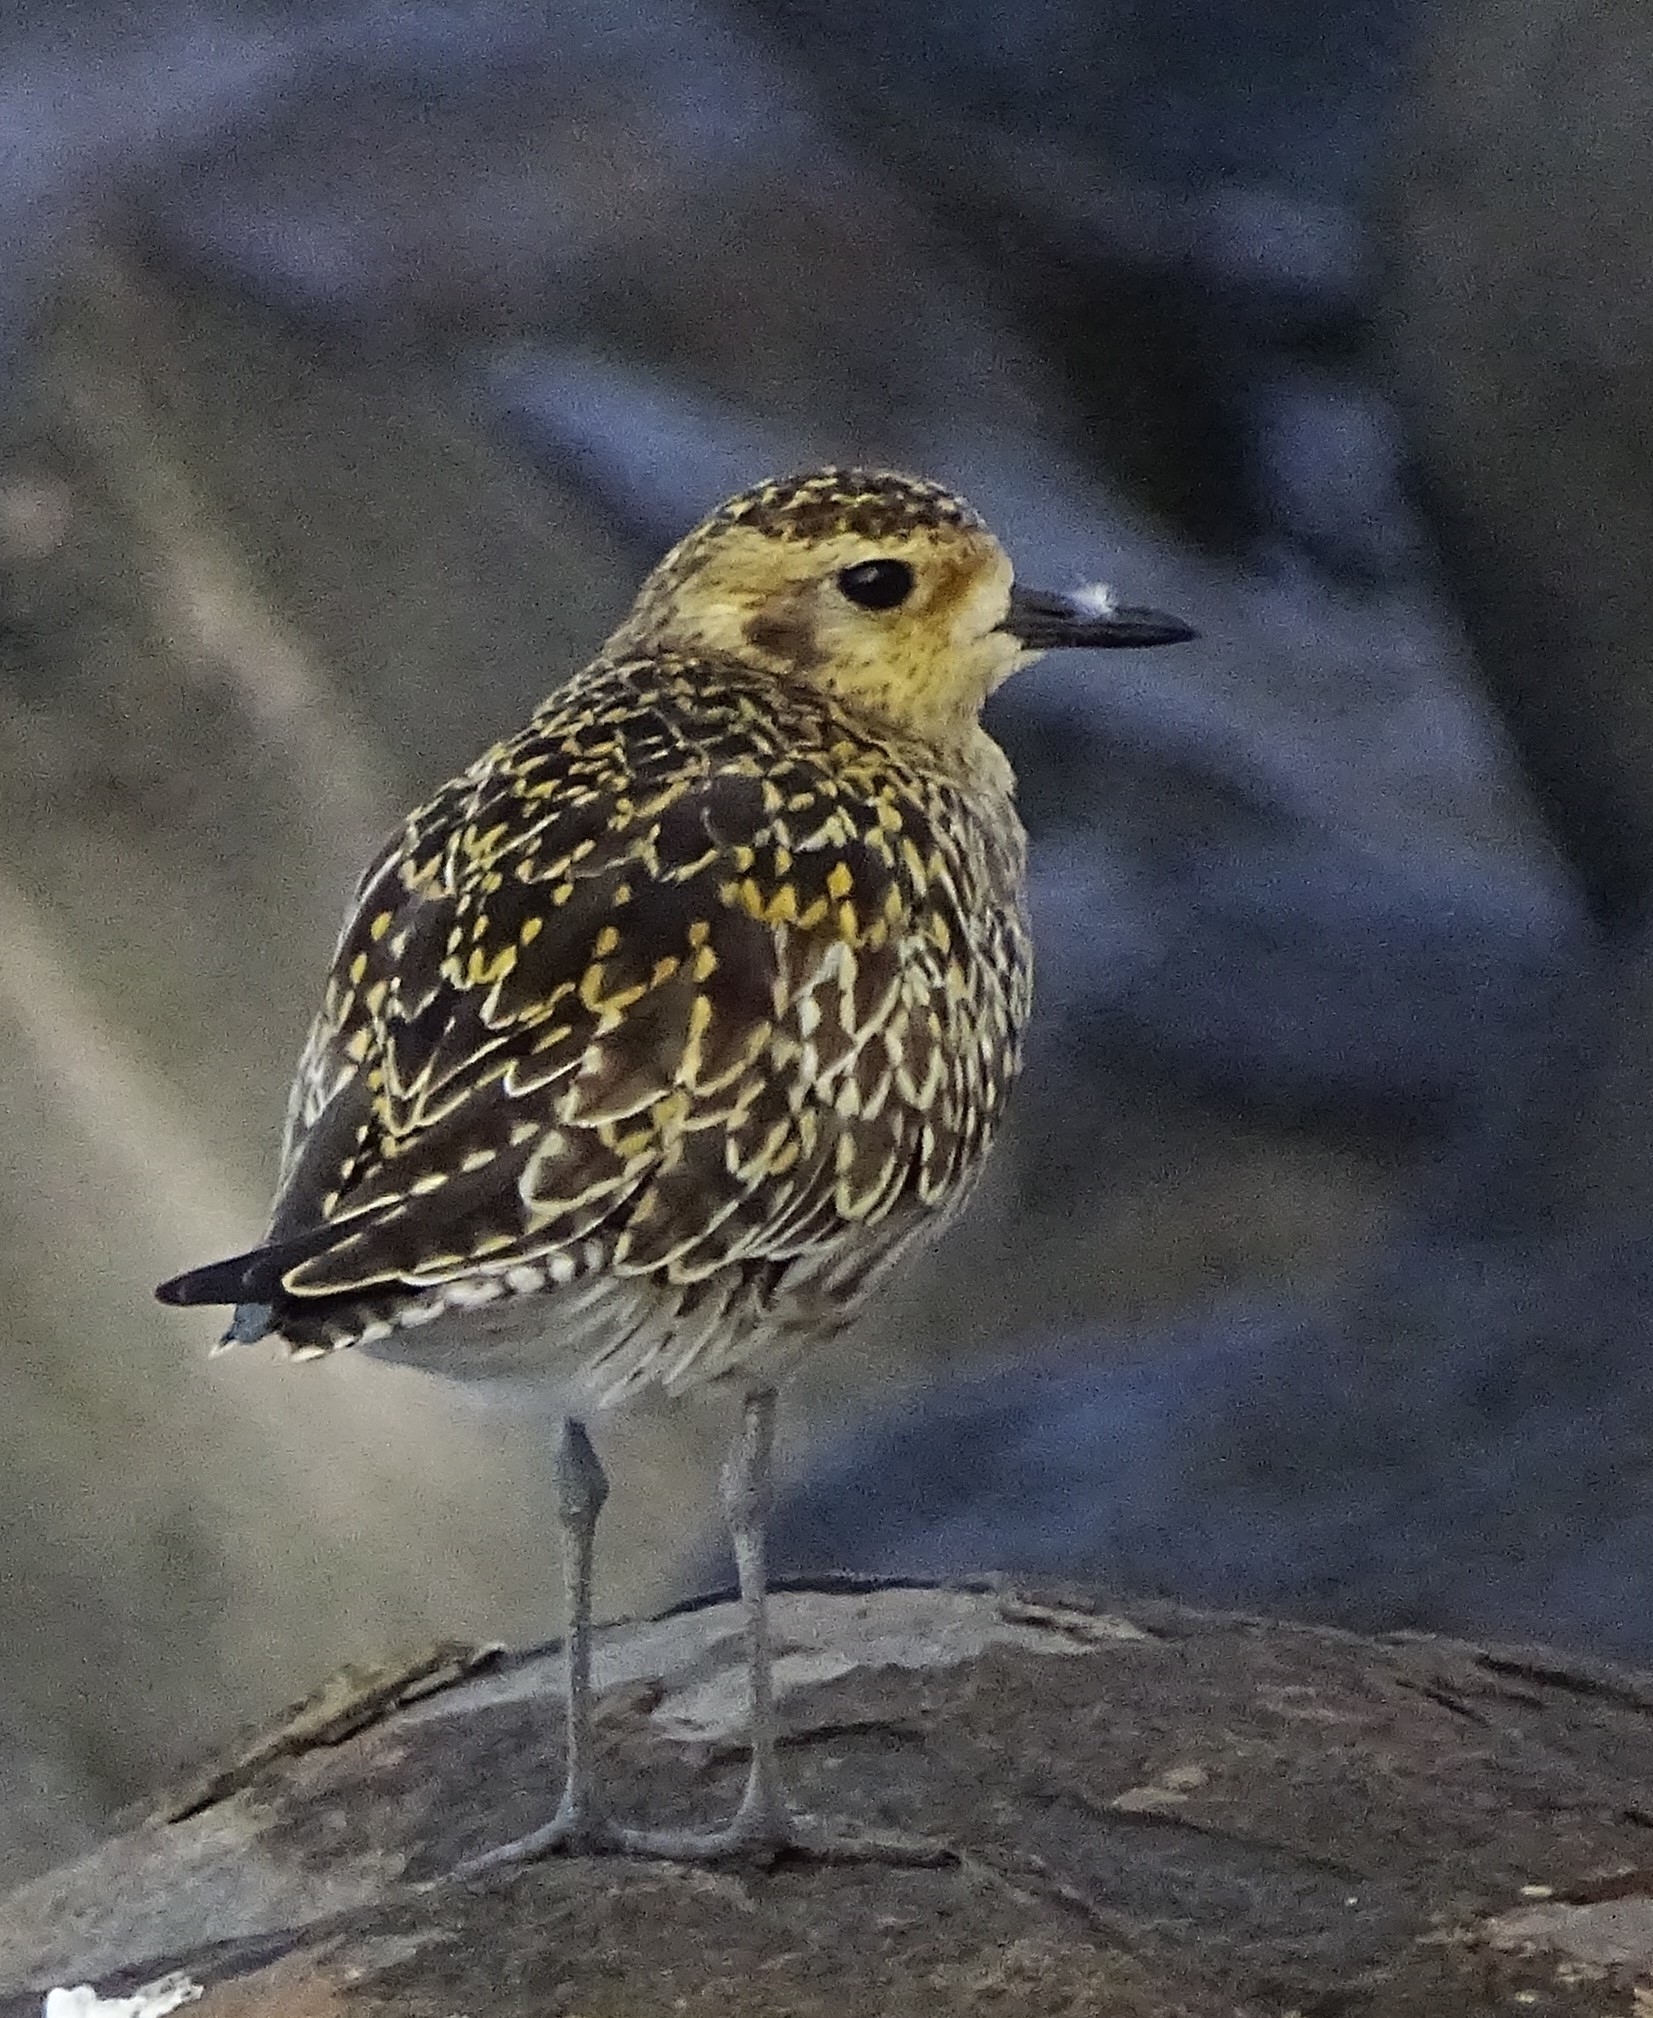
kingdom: Animalia
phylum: Chordata
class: Aves
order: Charadriiformes
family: Charadriidae
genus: Pluvialis
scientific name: Pluvialis fulva
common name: Pacific golden plover
